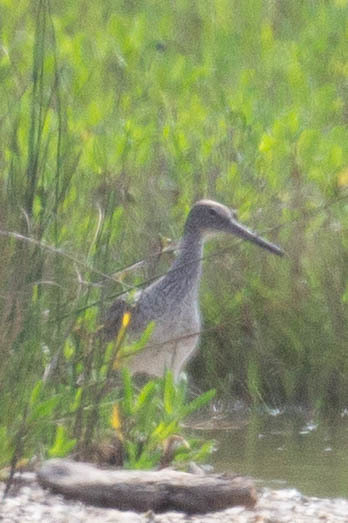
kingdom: Animalia
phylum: Chordata
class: Aves
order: Charadriiformes
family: Scolopacidae
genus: Tringa
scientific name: Tringa semipalmata
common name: Willet
